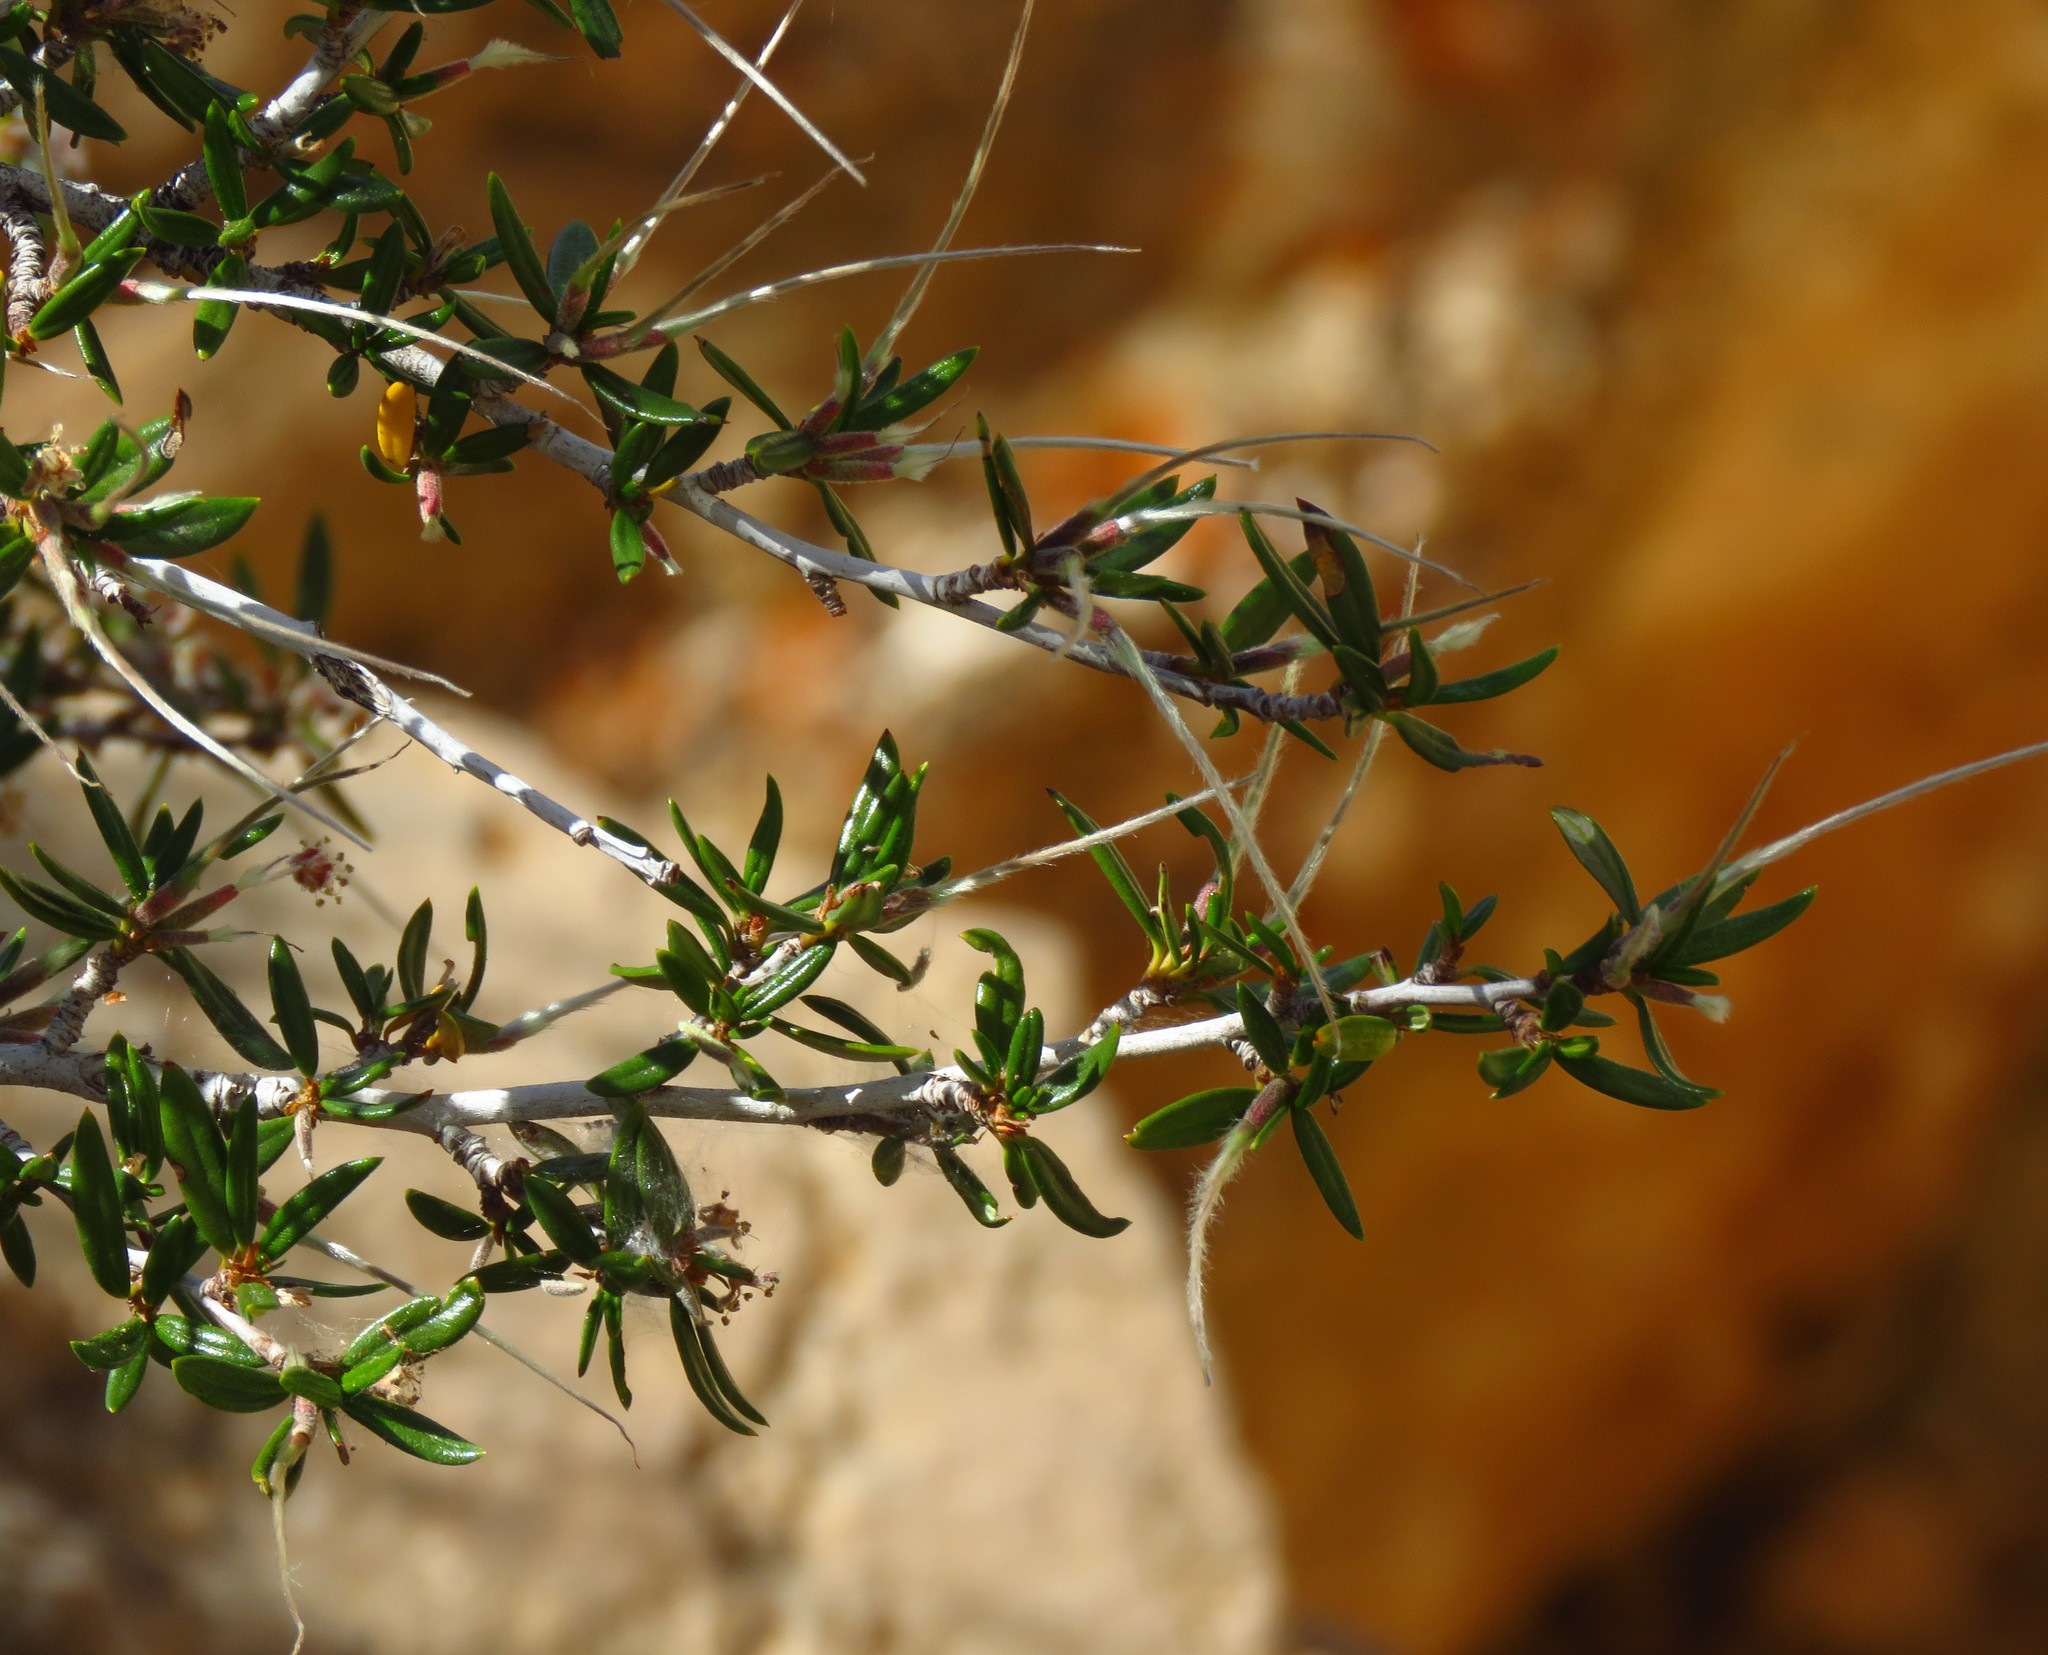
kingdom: Plantae
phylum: Tracheophyta
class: Magnoliopsida
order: Rosales
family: Rosaceae
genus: Cercocarpus
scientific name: Cercocarpus ledifolius
